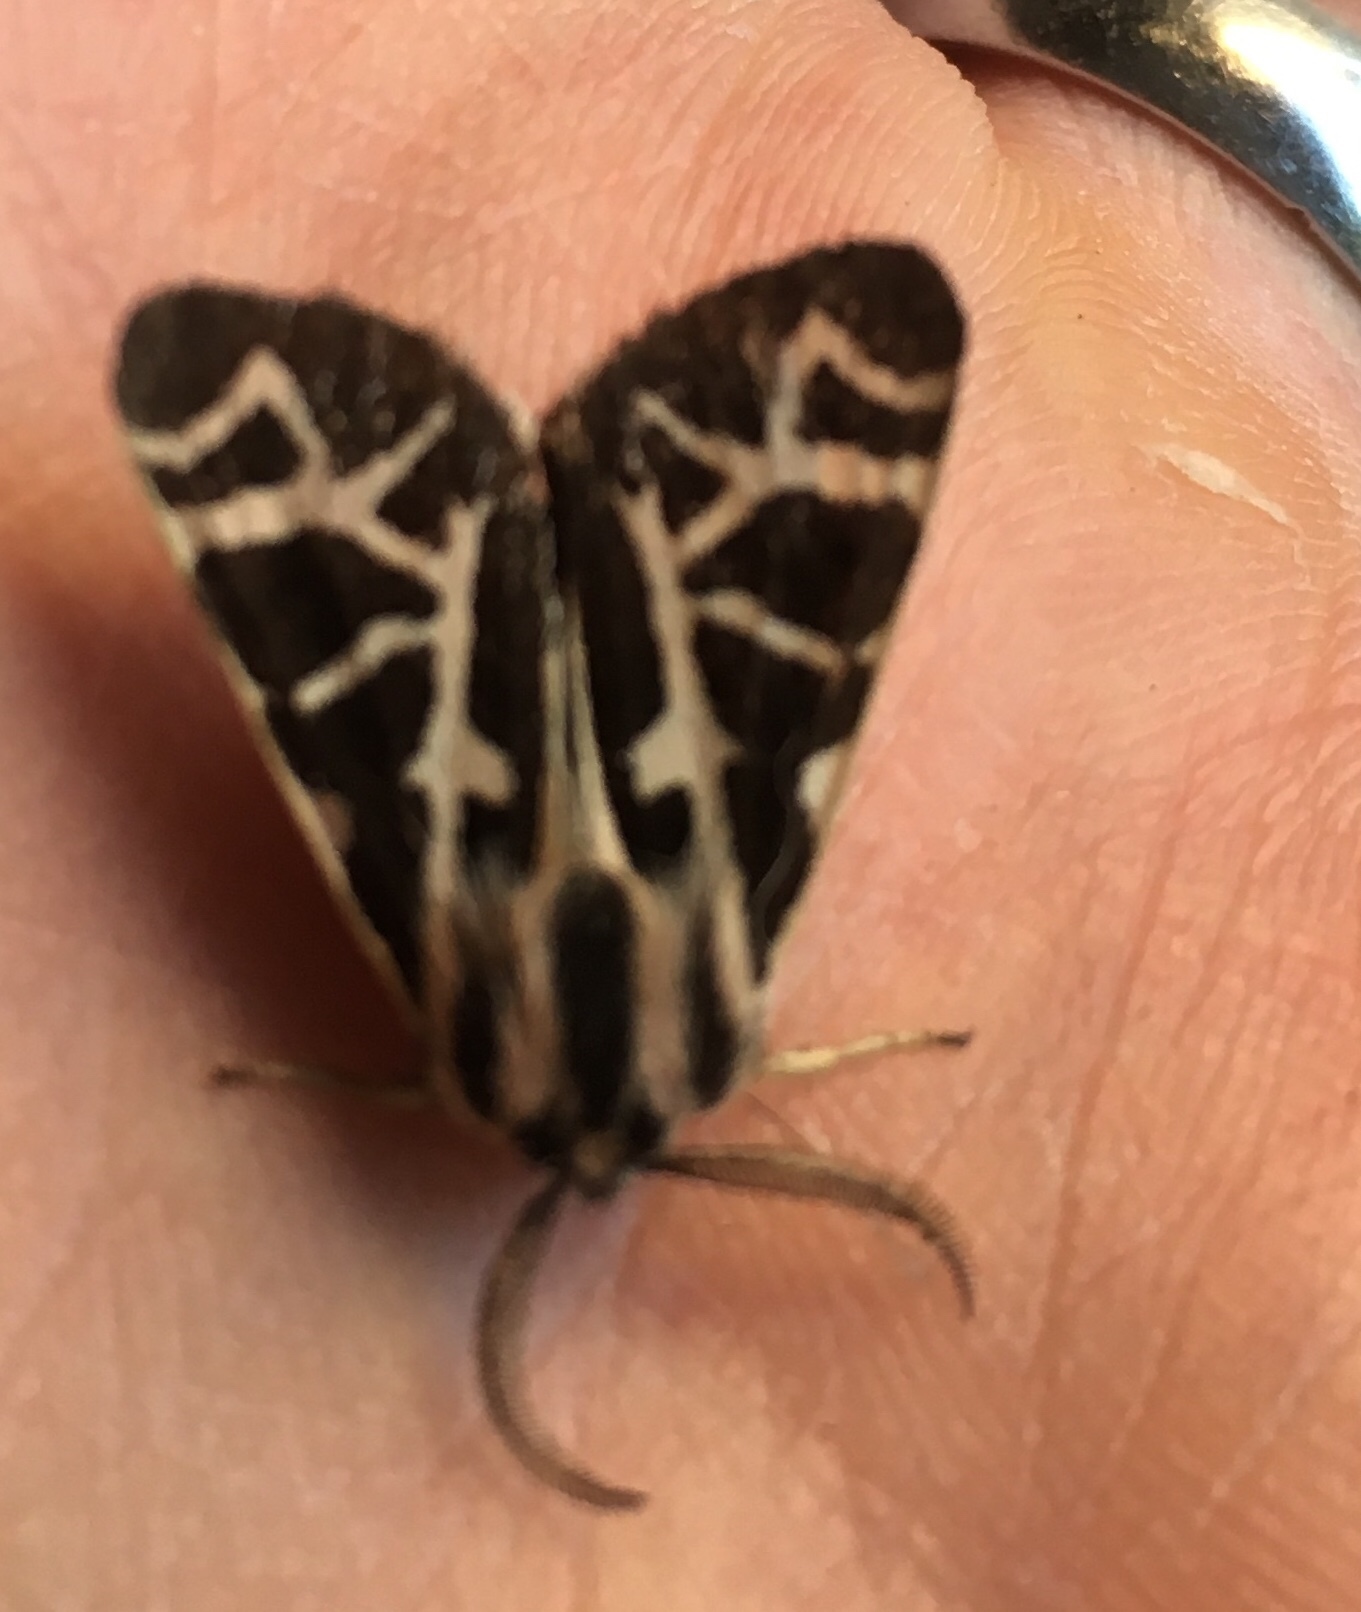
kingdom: Animalia
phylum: Arthropoda
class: Insecta
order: Lepidoptera
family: Erebidae
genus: Apantesis
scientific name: Apantesis
